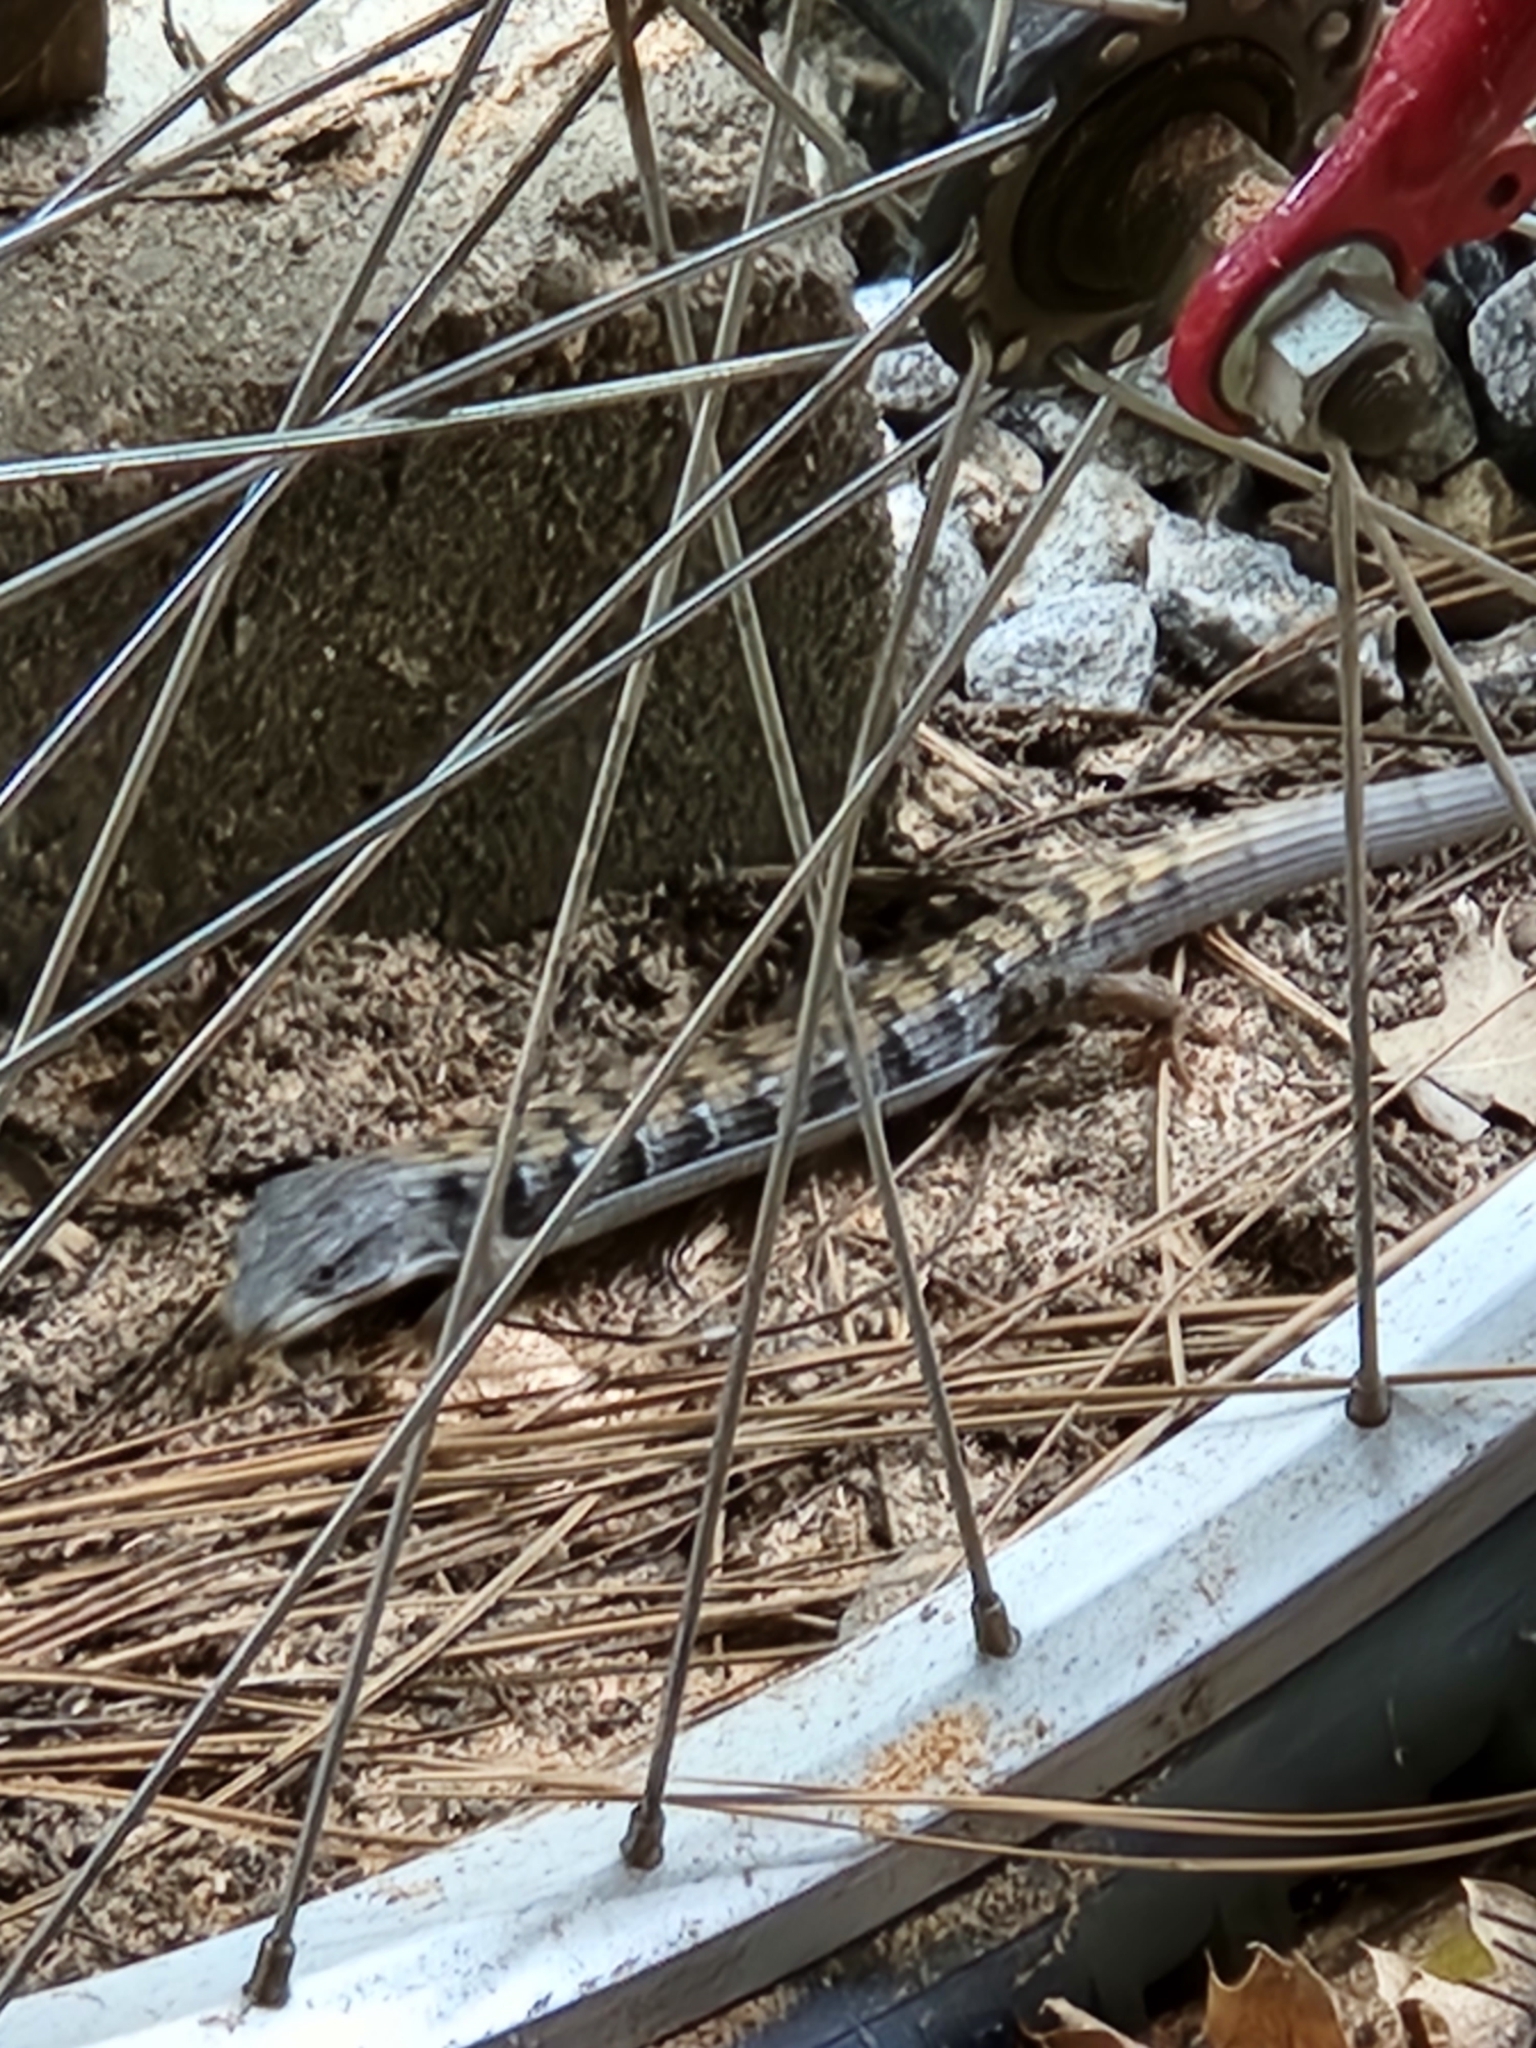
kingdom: Animalia
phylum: Chordata
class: Squamata
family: Anguidae
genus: Elgaria
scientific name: Elgaria multicarinata
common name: Southern alligator lizard
